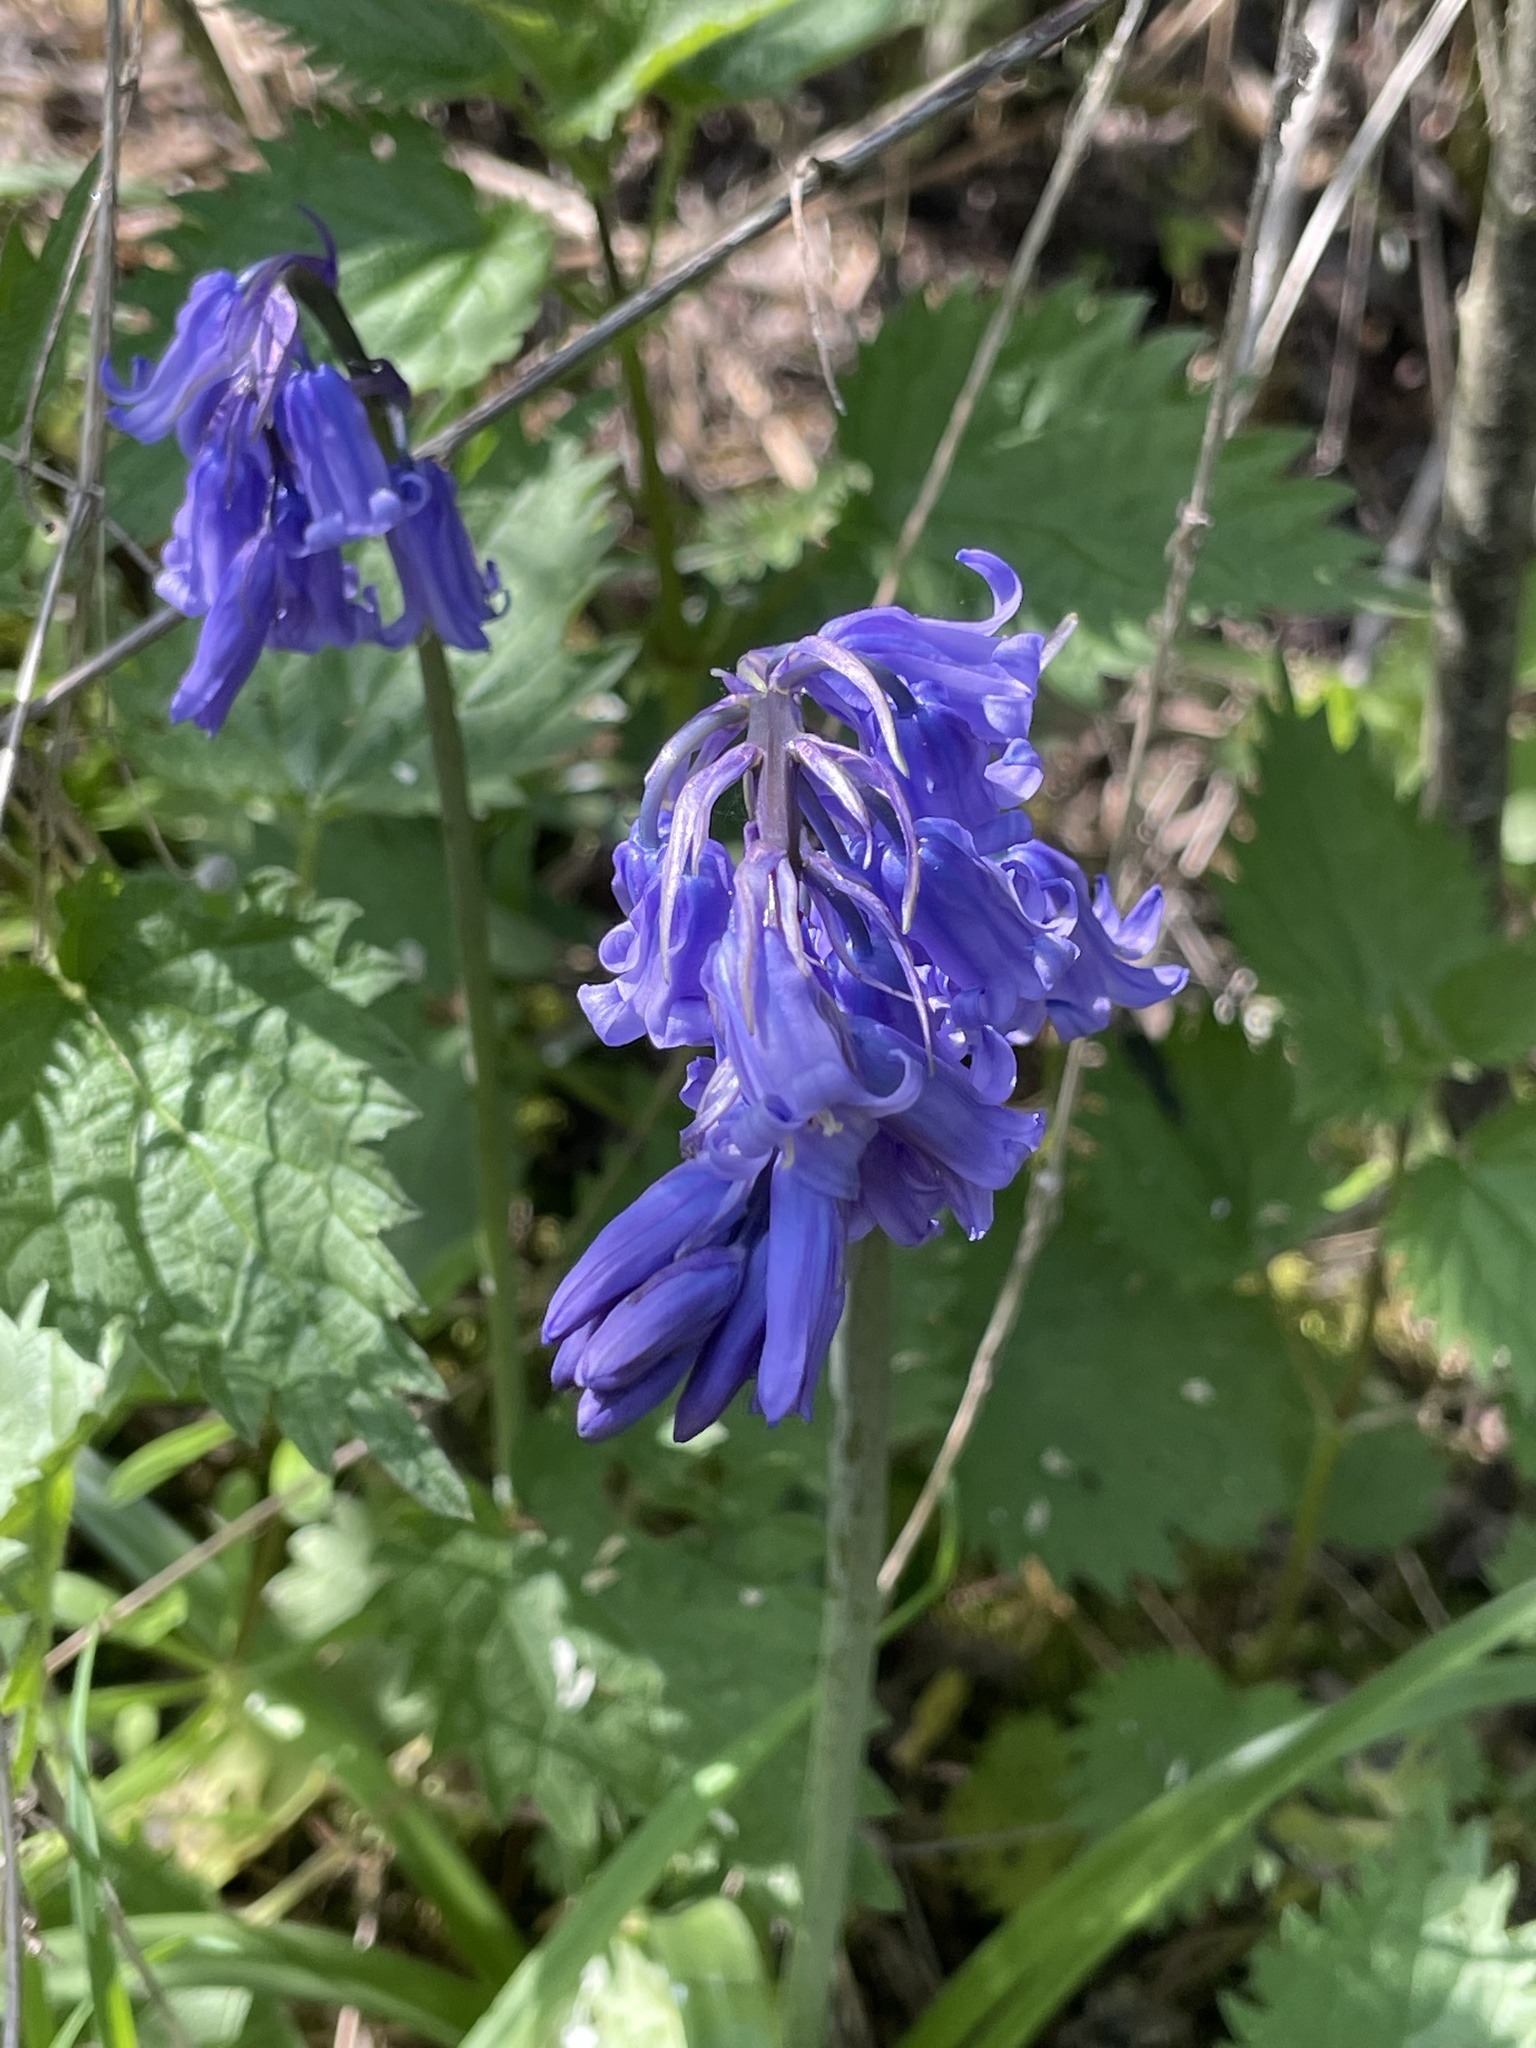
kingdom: Plantae
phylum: Tracheophyta
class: Liliopsida
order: Asparagales
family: Asparagaceae
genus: Hyacinthoides
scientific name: Hyacinthoides non-scripta
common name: Bluebell
